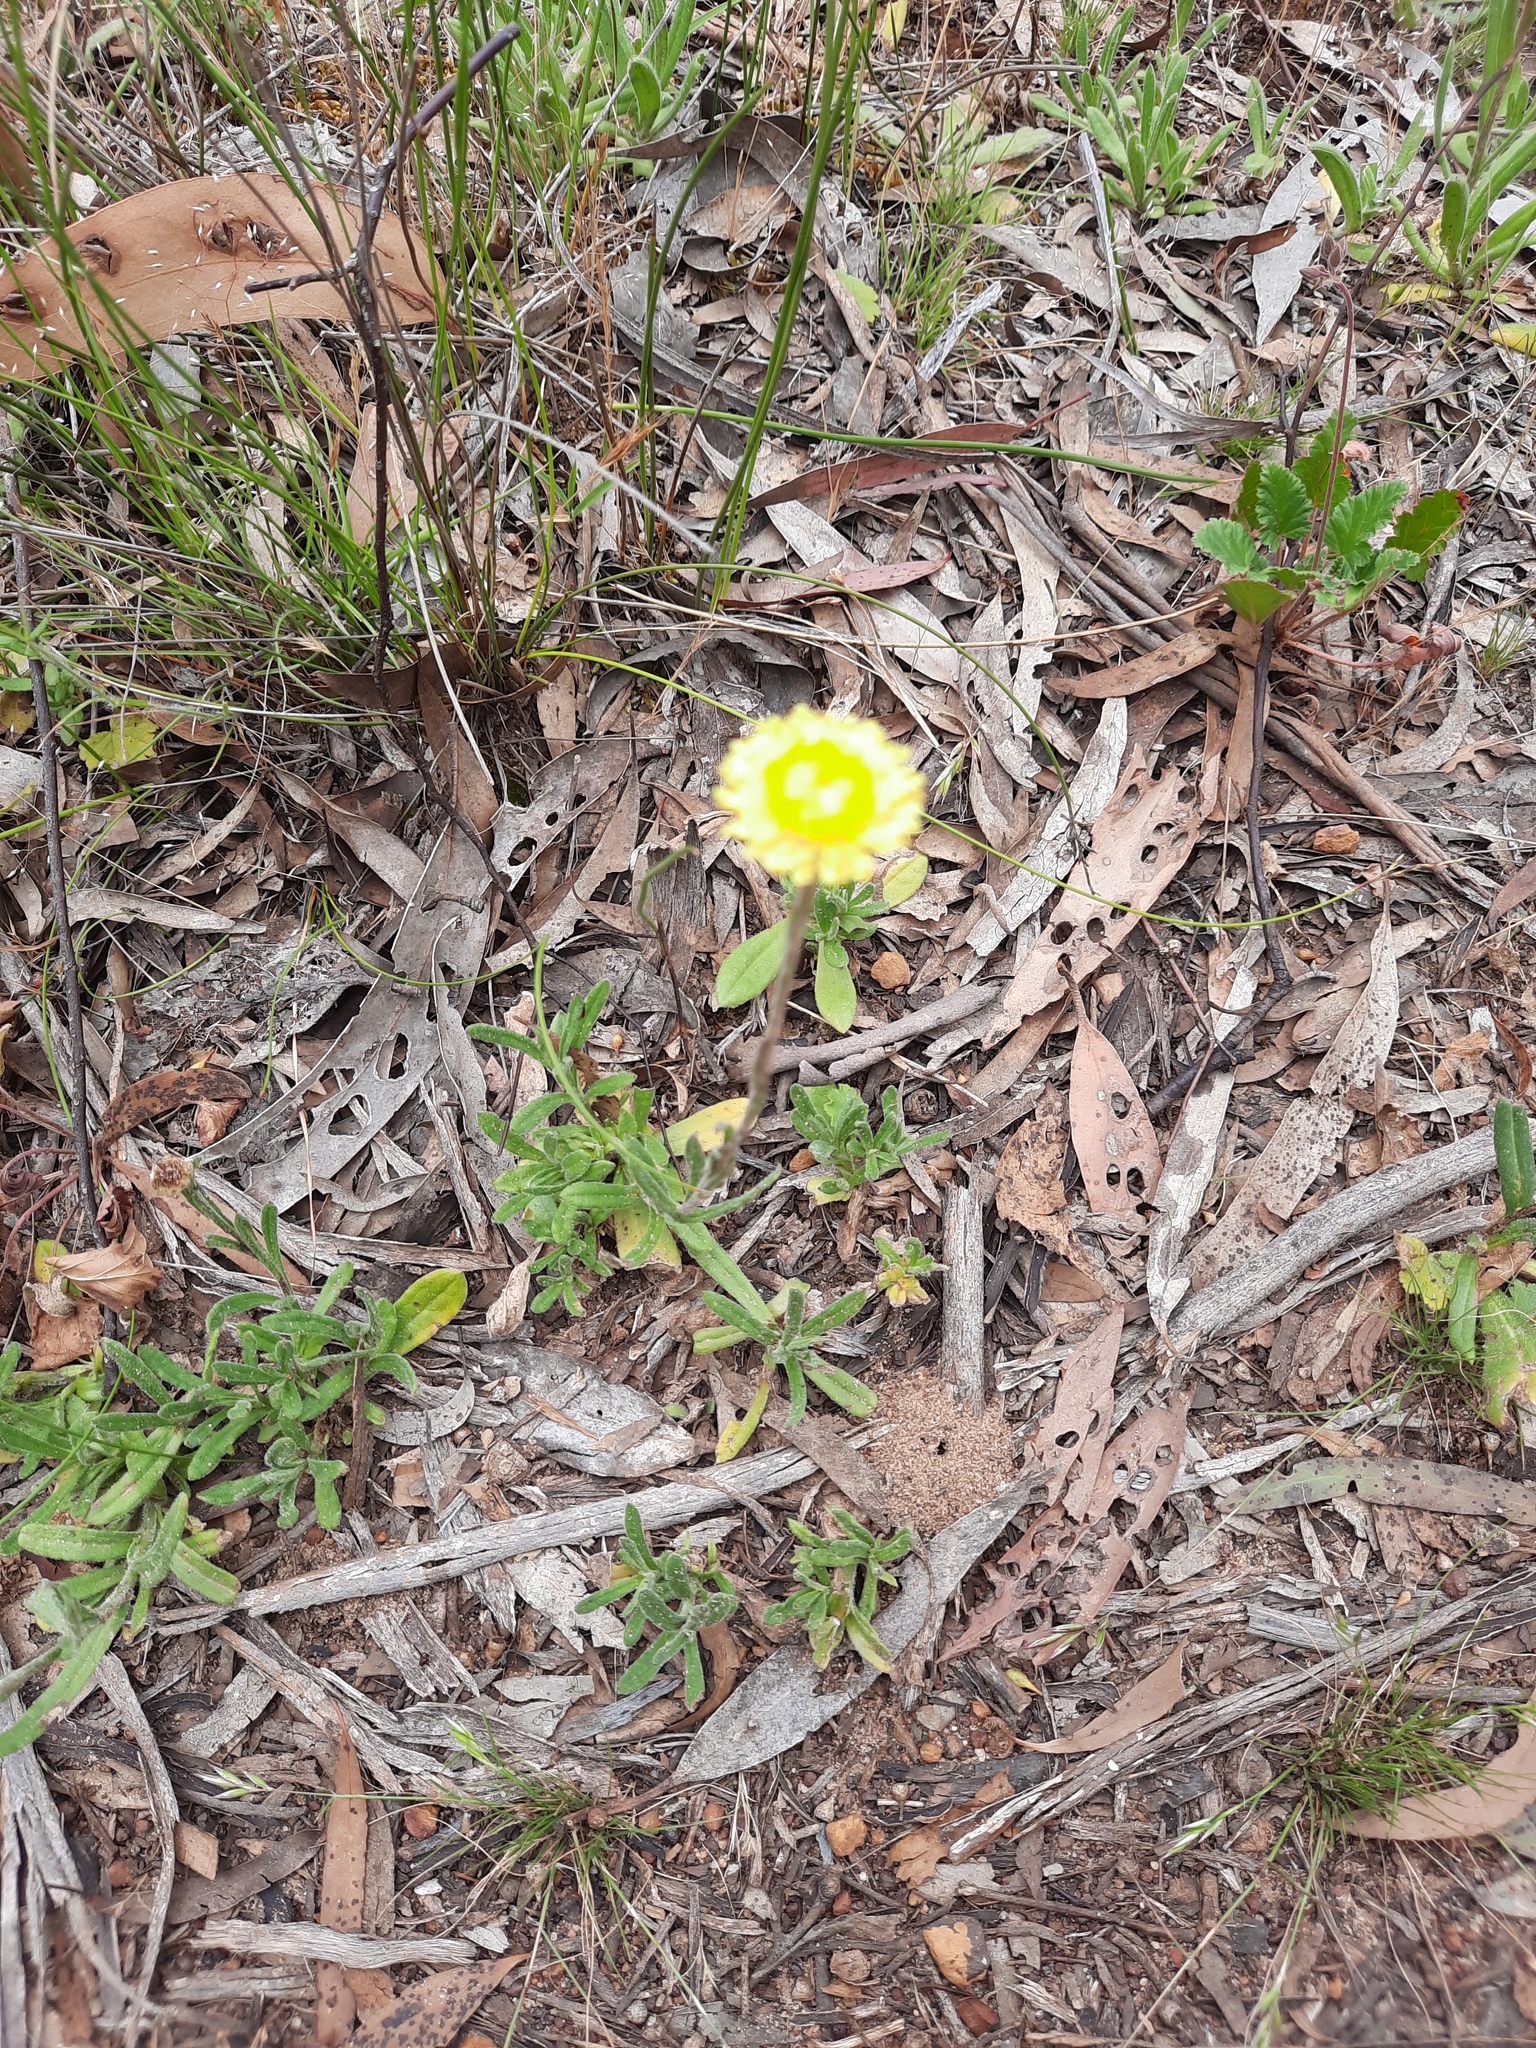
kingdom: Plantae
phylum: Tracheophyta
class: Magnoliopsida
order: Asterales
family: Asteraceae
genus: Coronidium
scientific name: Coronidium scorpioides
